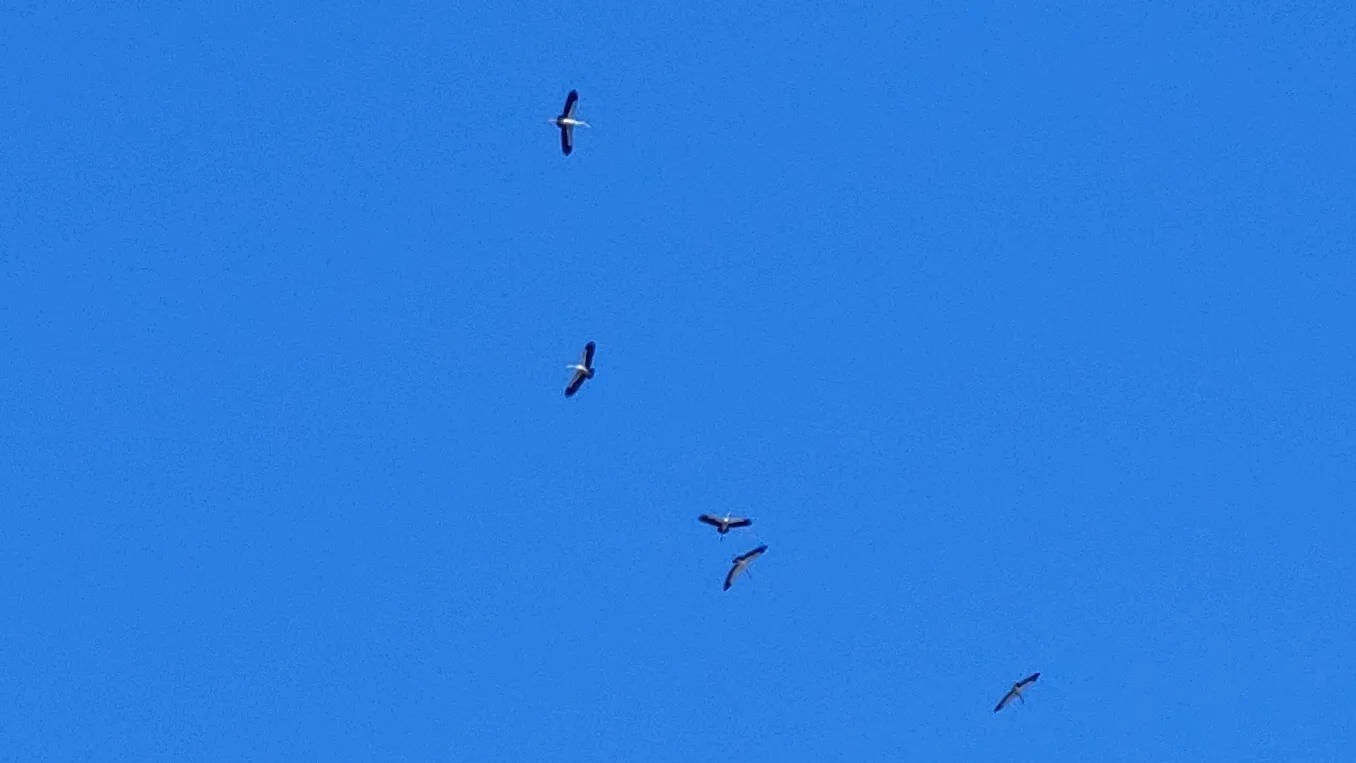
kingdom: Animalia
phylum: Chordata
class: Aves
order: Ciconiiformes
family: Ciconiidae
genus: Anastomus
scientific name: Anastomus oscitans
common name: Asian openbill
